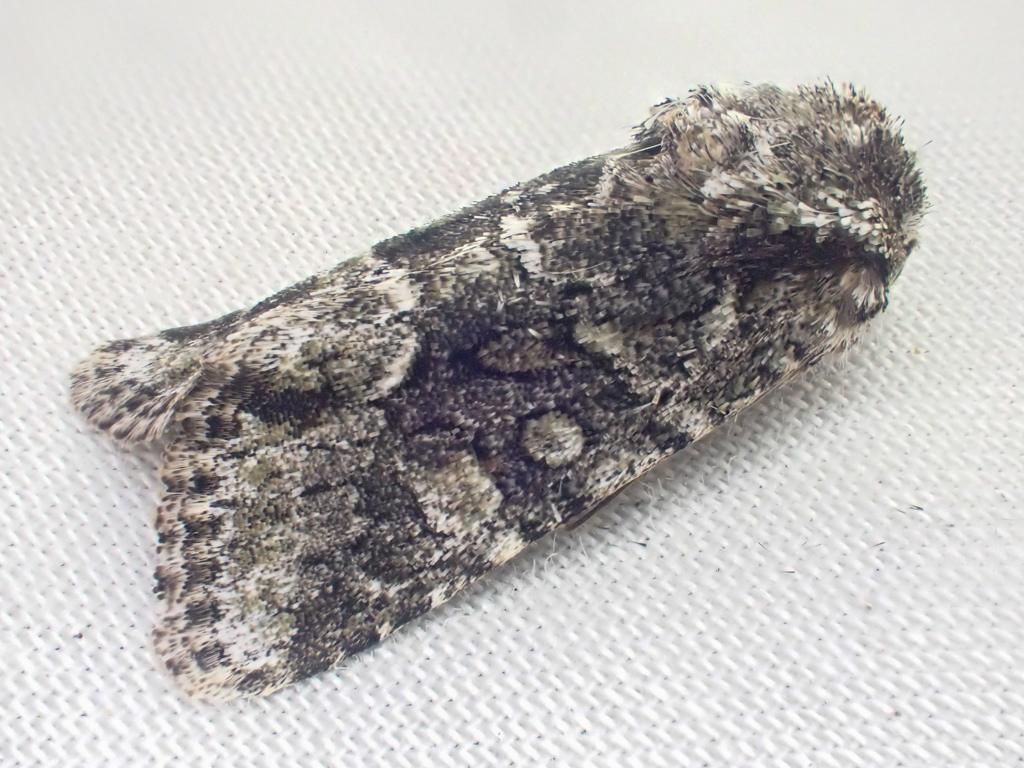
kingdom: Animalia
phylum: Arthropoda
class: Insecta
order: Lepidoptera
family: Noctuidae
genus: Lacinipolia
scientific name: Lacinipolia quadrilineata
